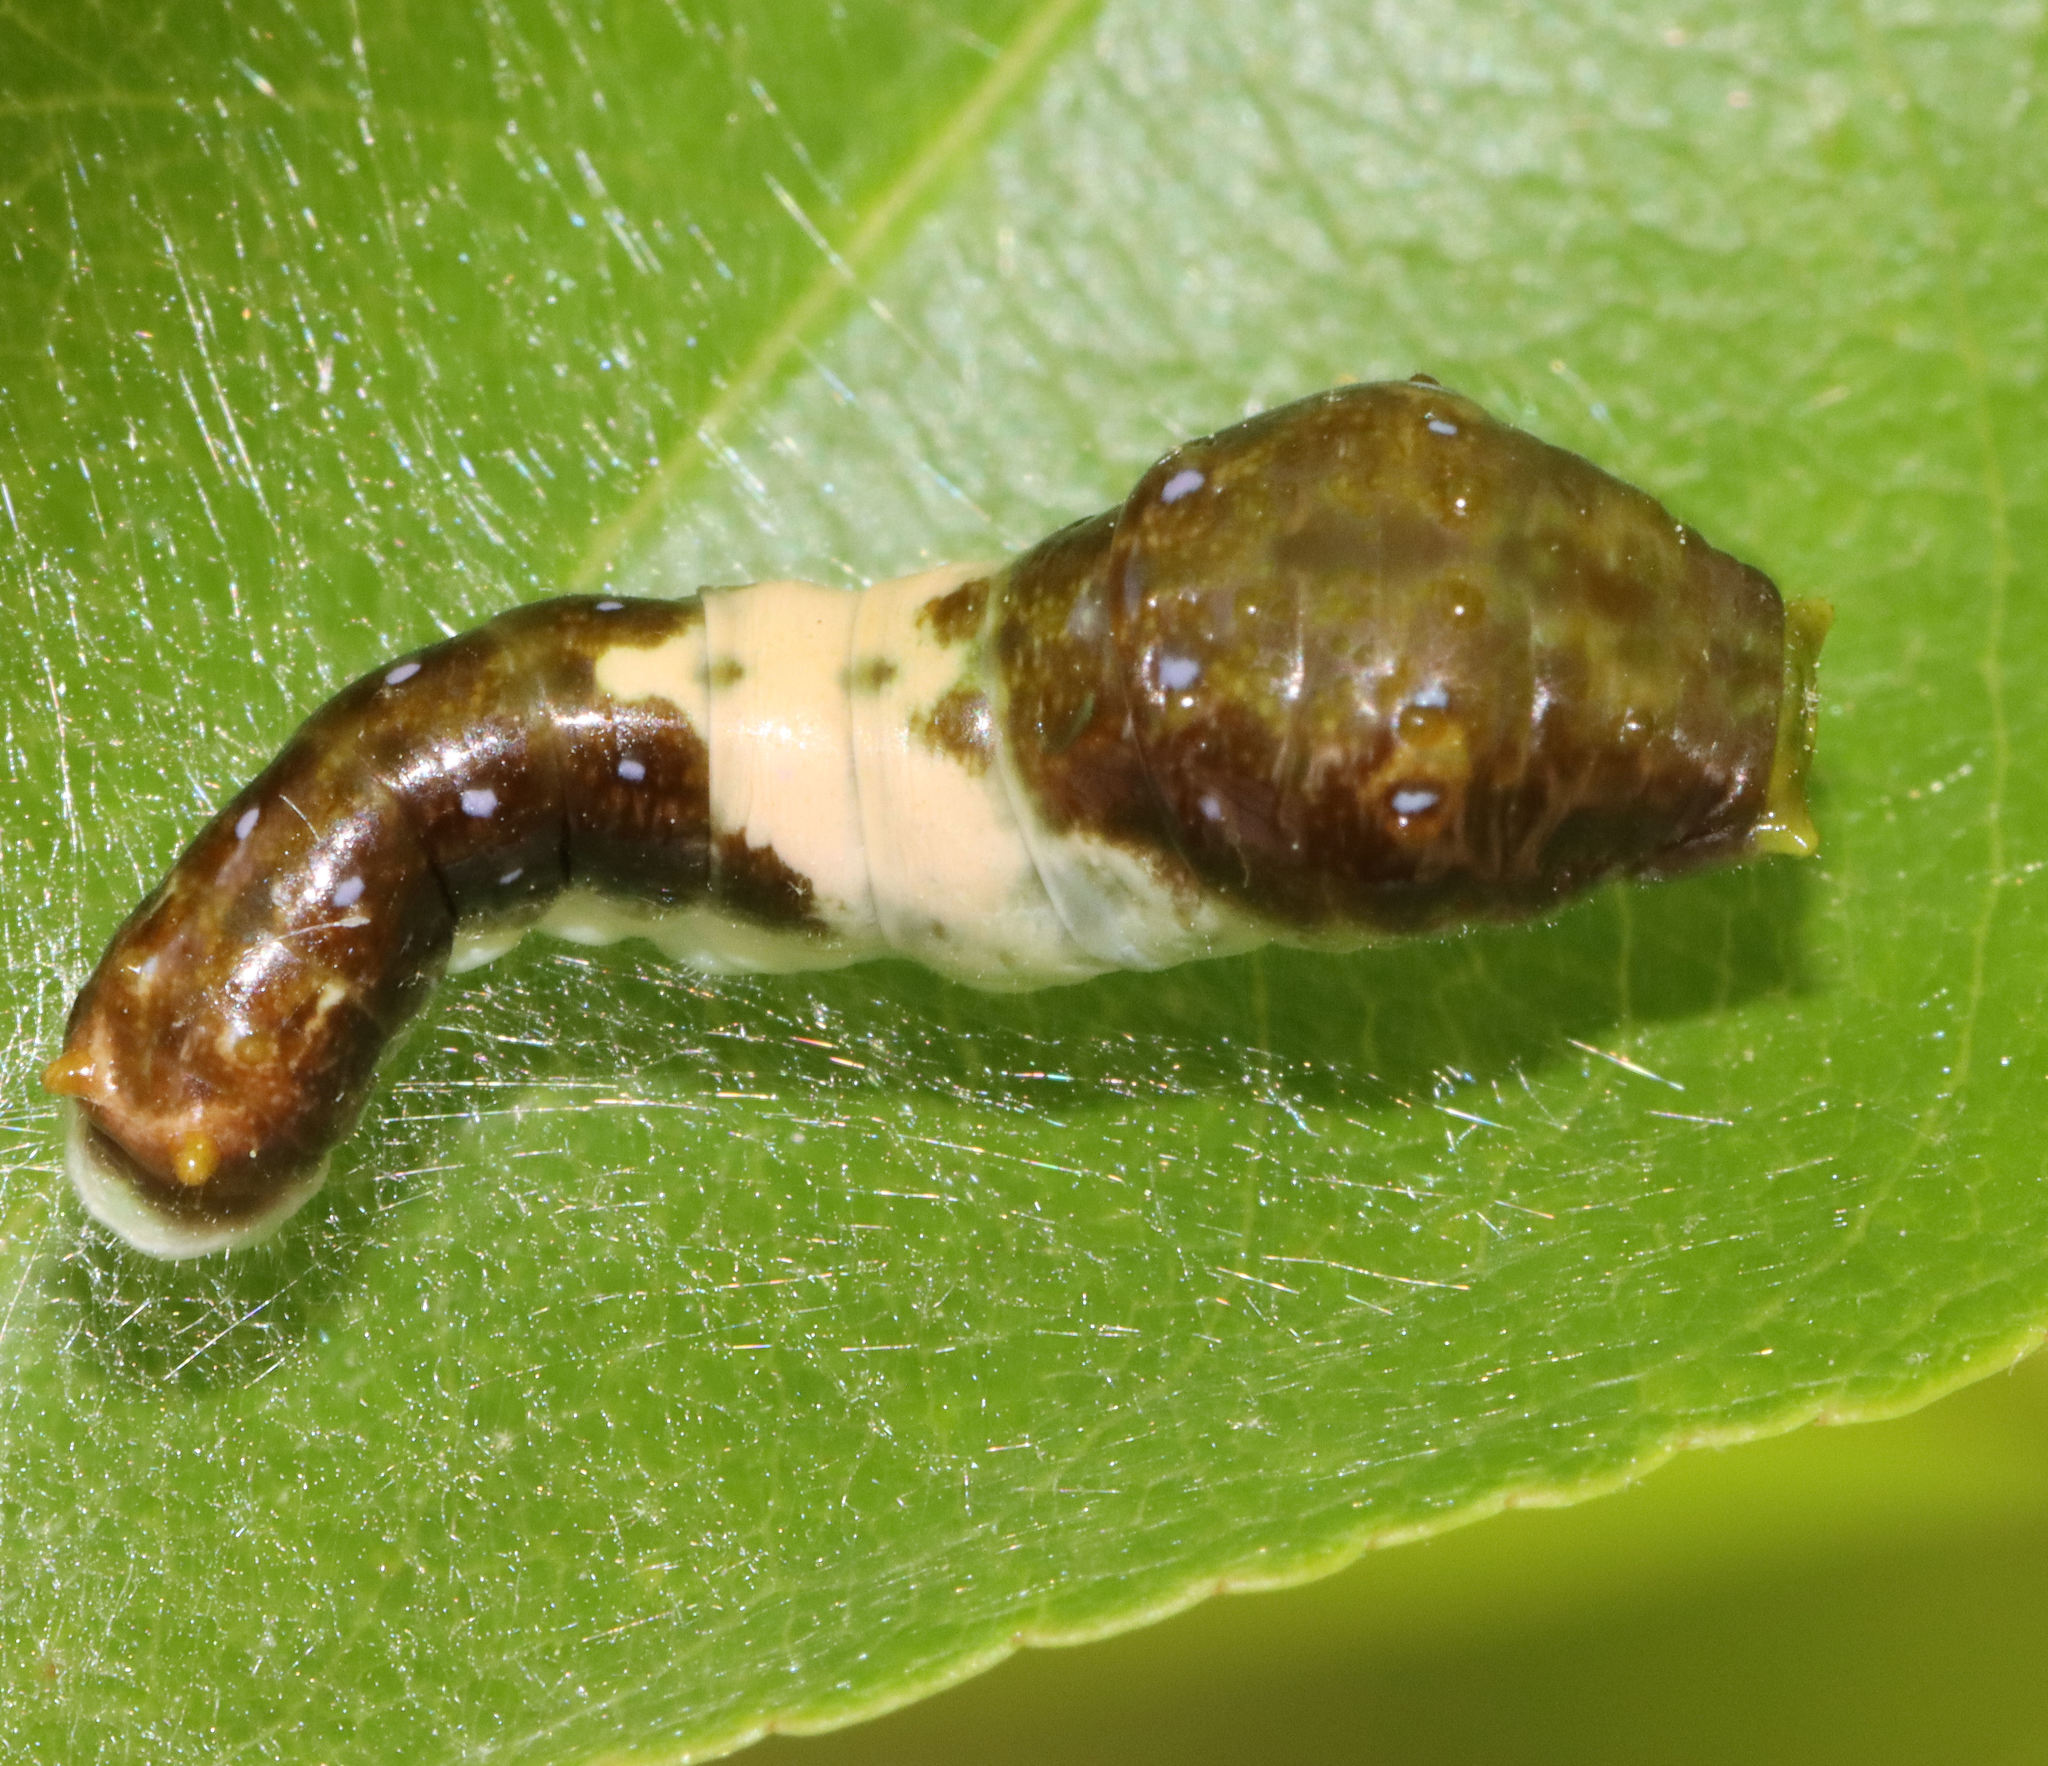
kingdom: Animalia
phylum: Arthropoda
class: Insecta
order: Lepidoptera
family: Papilionidae
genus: Papilio
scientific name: Papilio glaucus
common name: Tiger swallowtail
